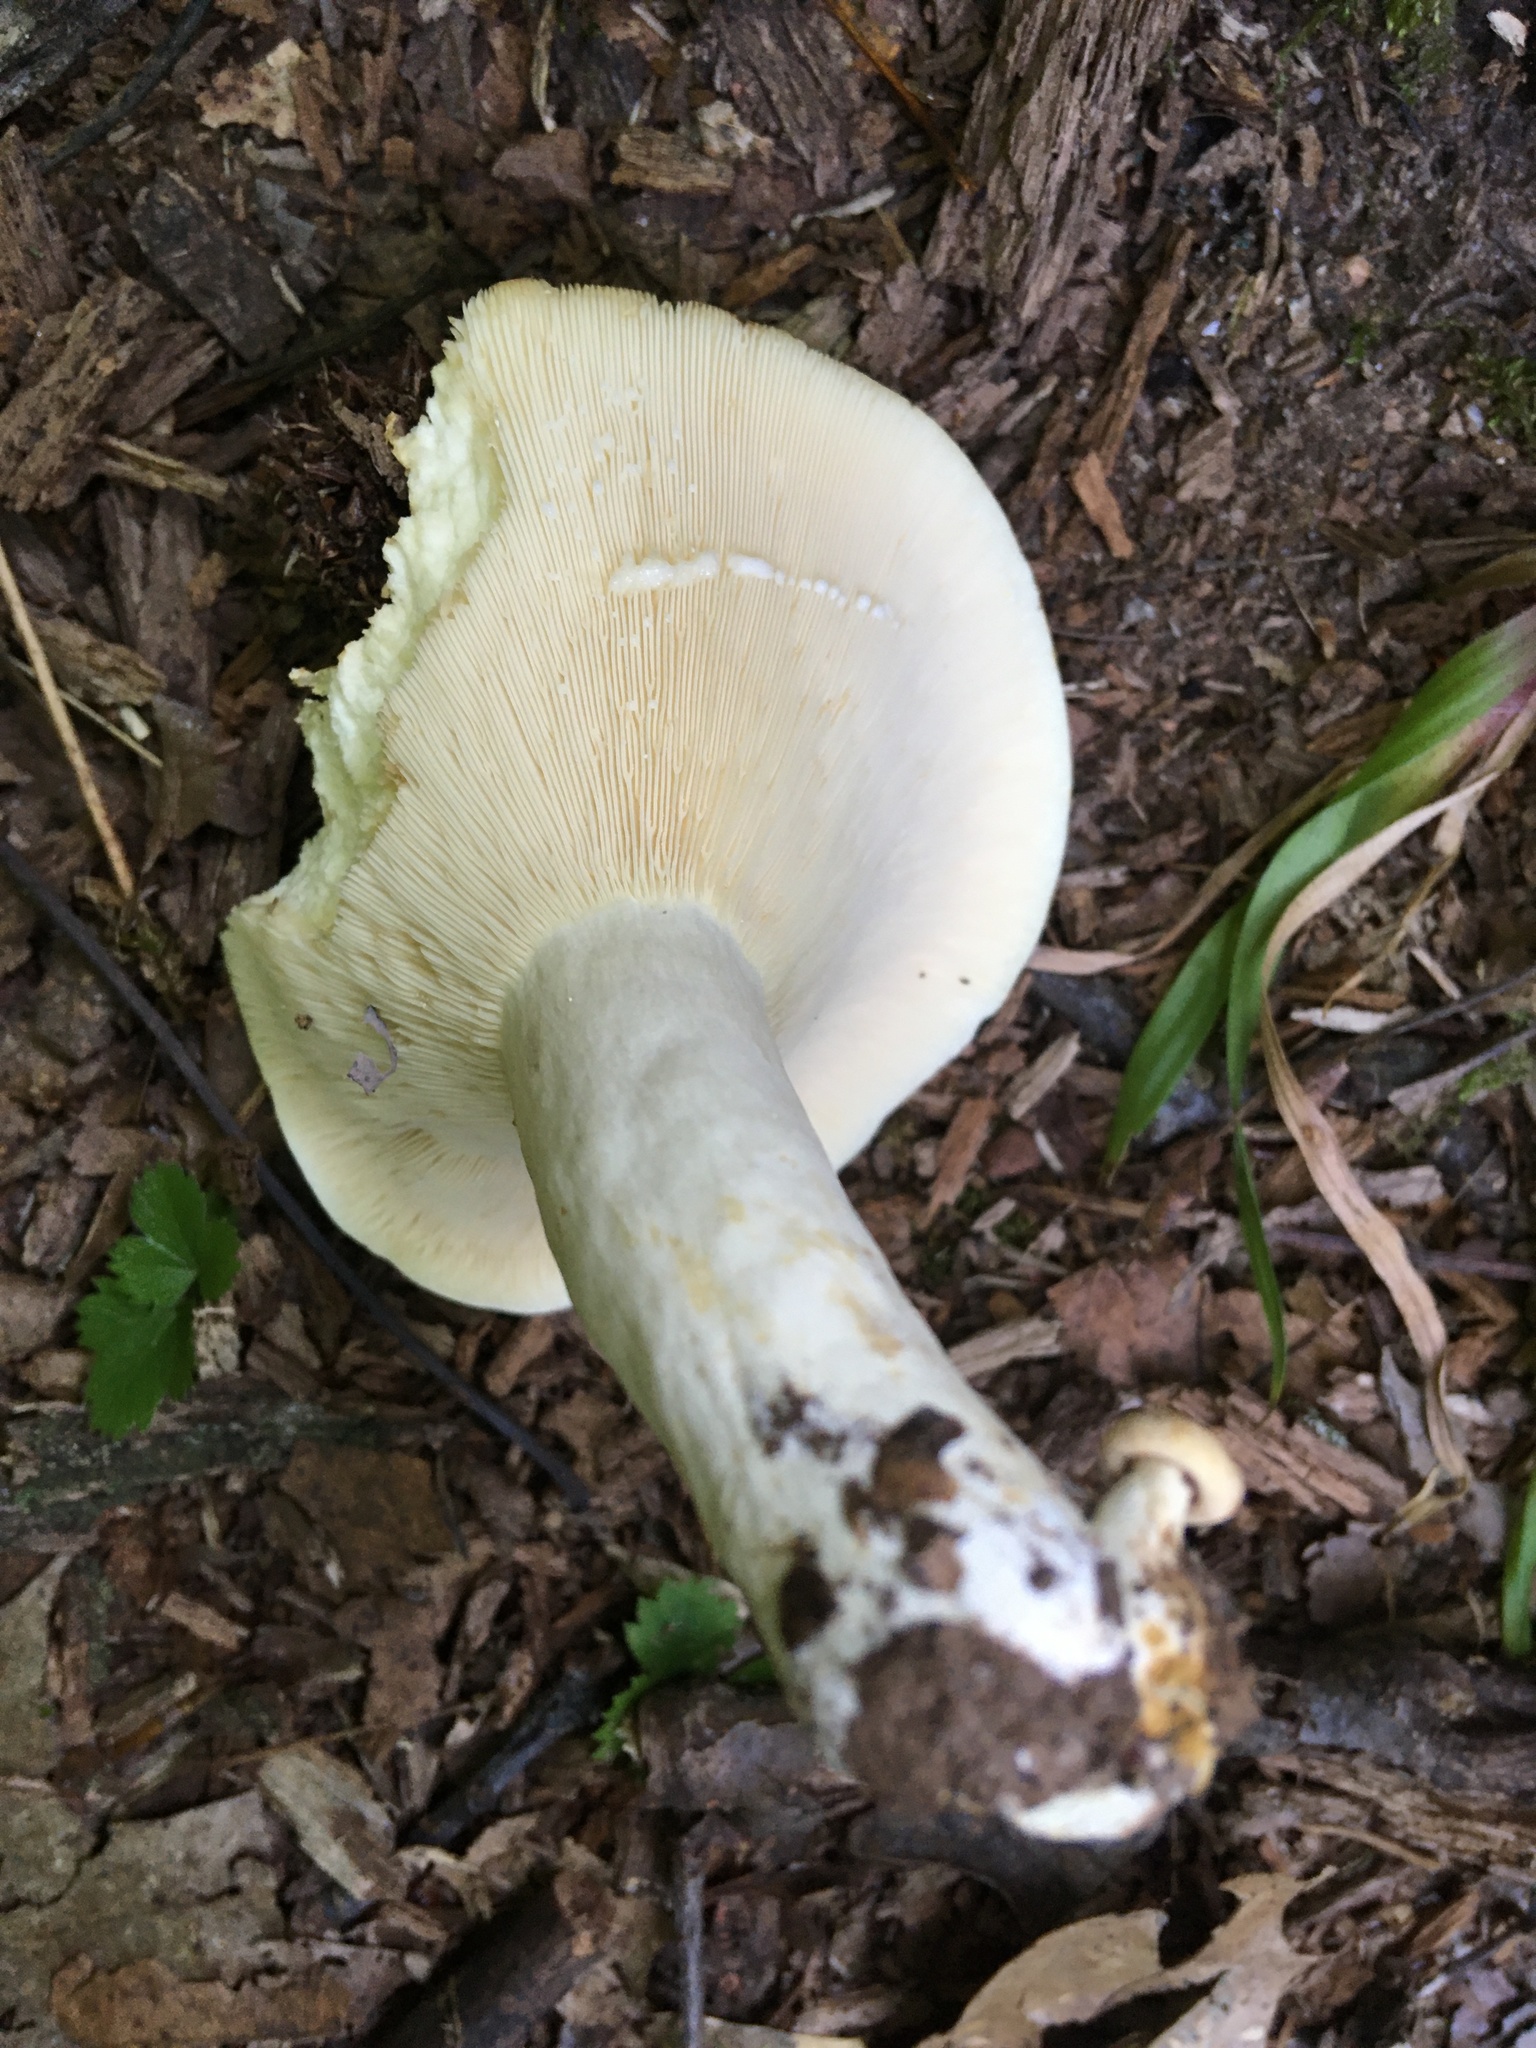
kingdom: Fungi
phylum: Basidiomycota
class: Agaricomycetes
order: Russulales
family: Russulaceae
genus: Lactifluus
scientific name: Lactifluus piperatus
